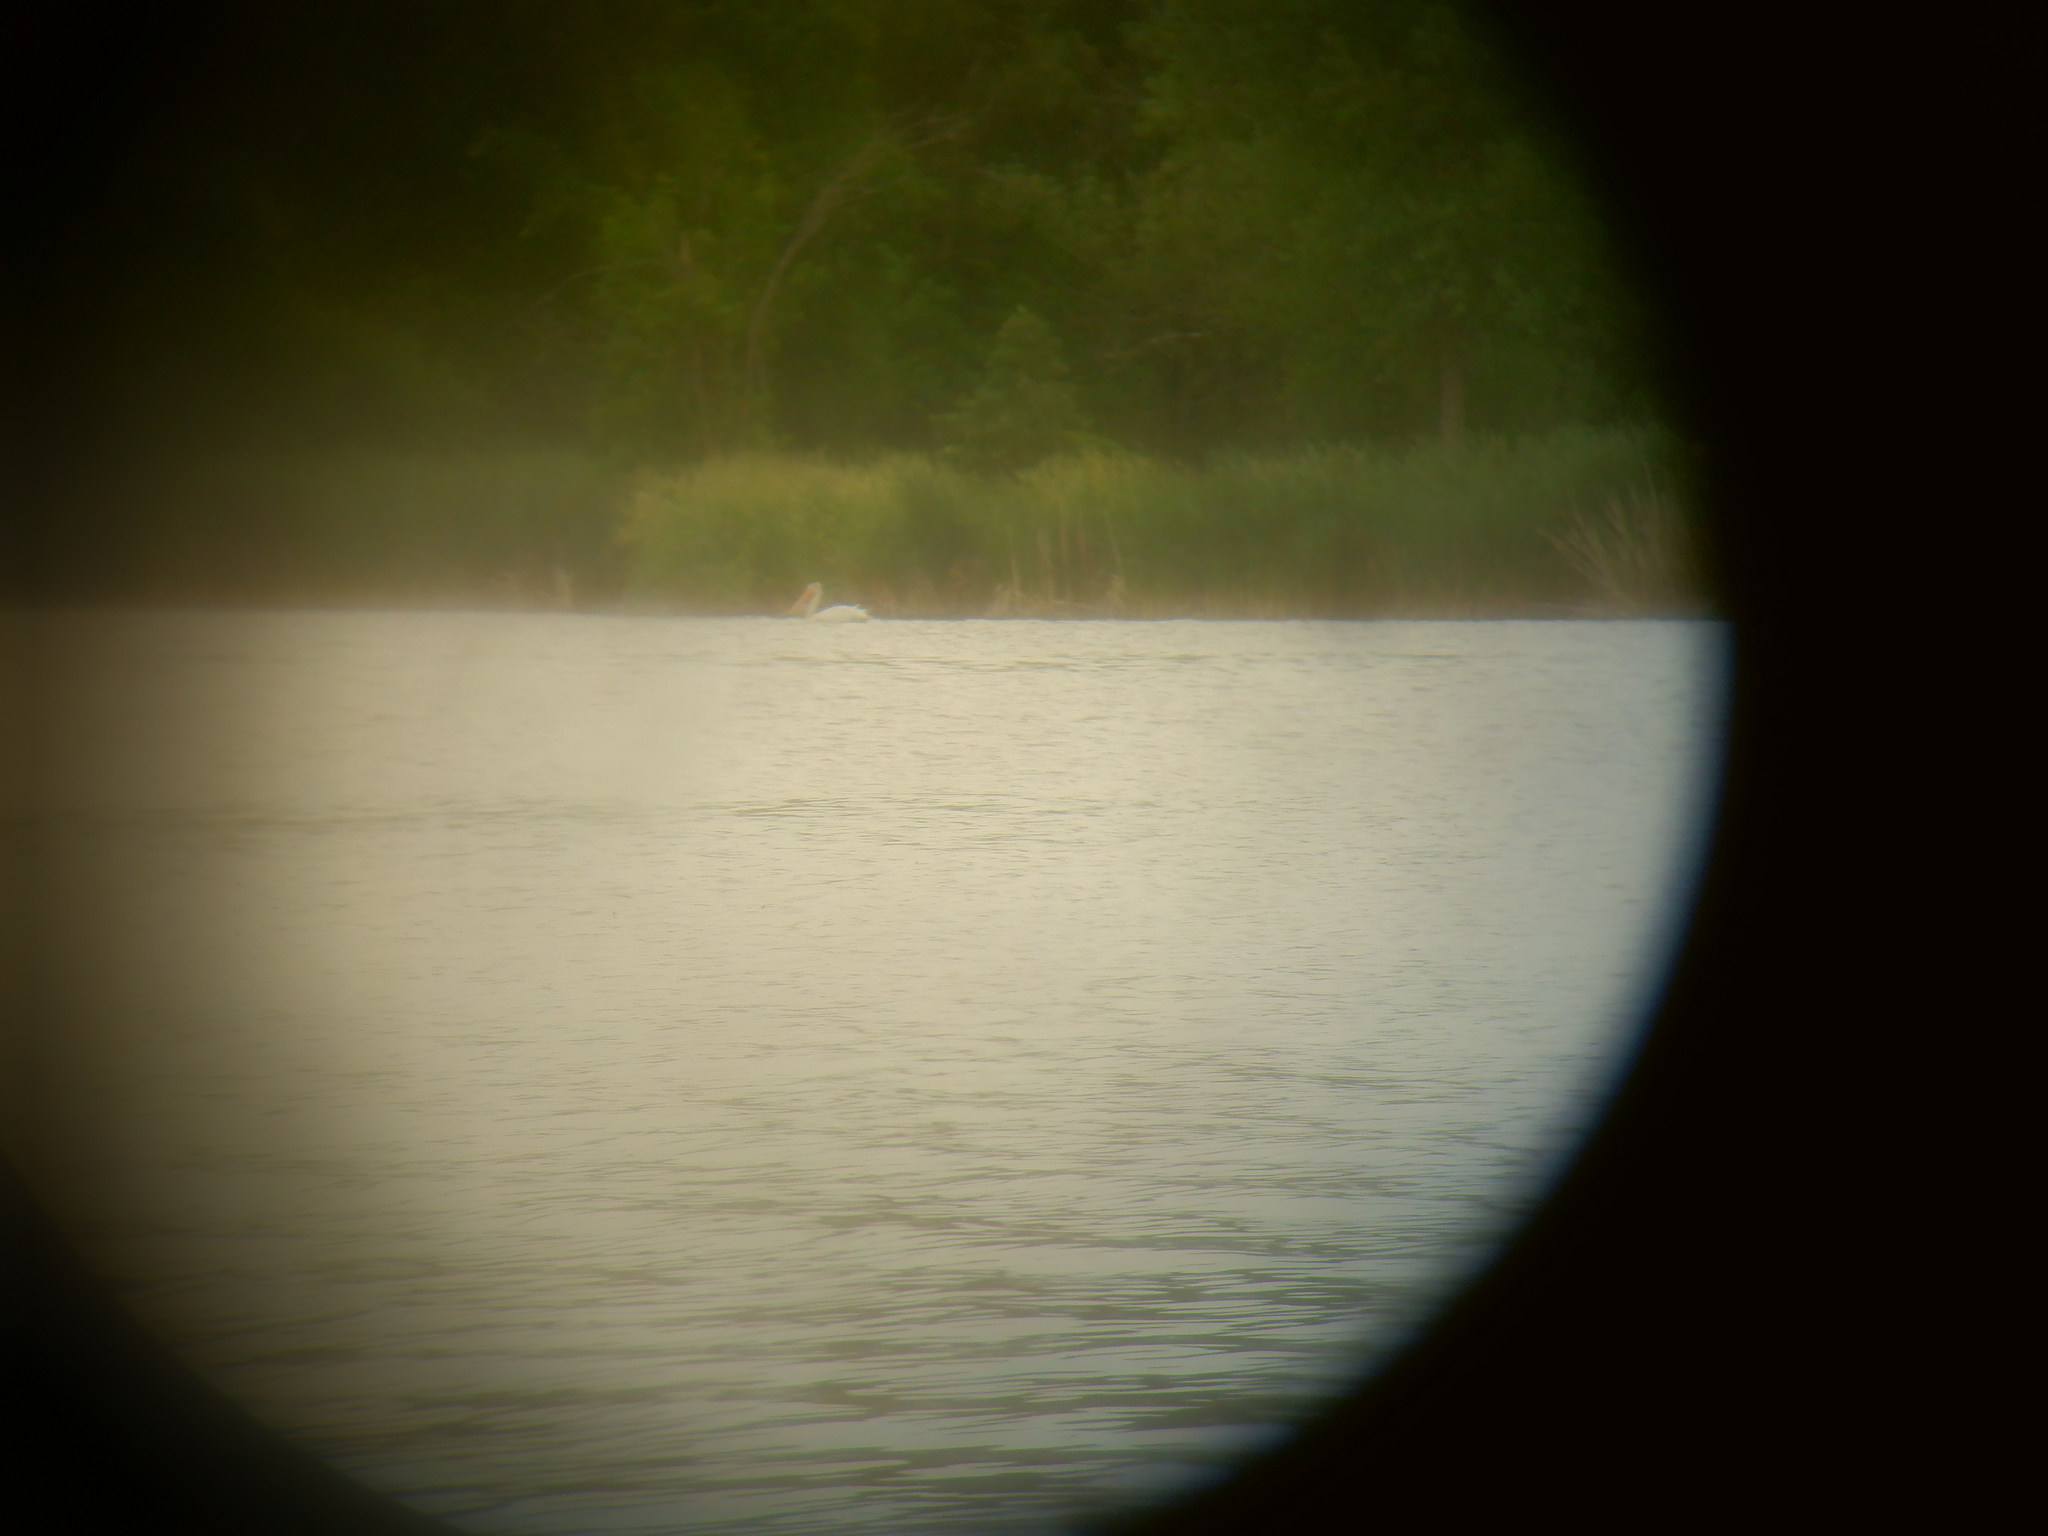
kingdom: Animalia
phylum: Chordata
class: Aves
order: Pelecaniformes
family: Pelecanidae
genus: Pelecanus
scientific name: Pelecanus erythrorhynchos
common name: American white pelican
